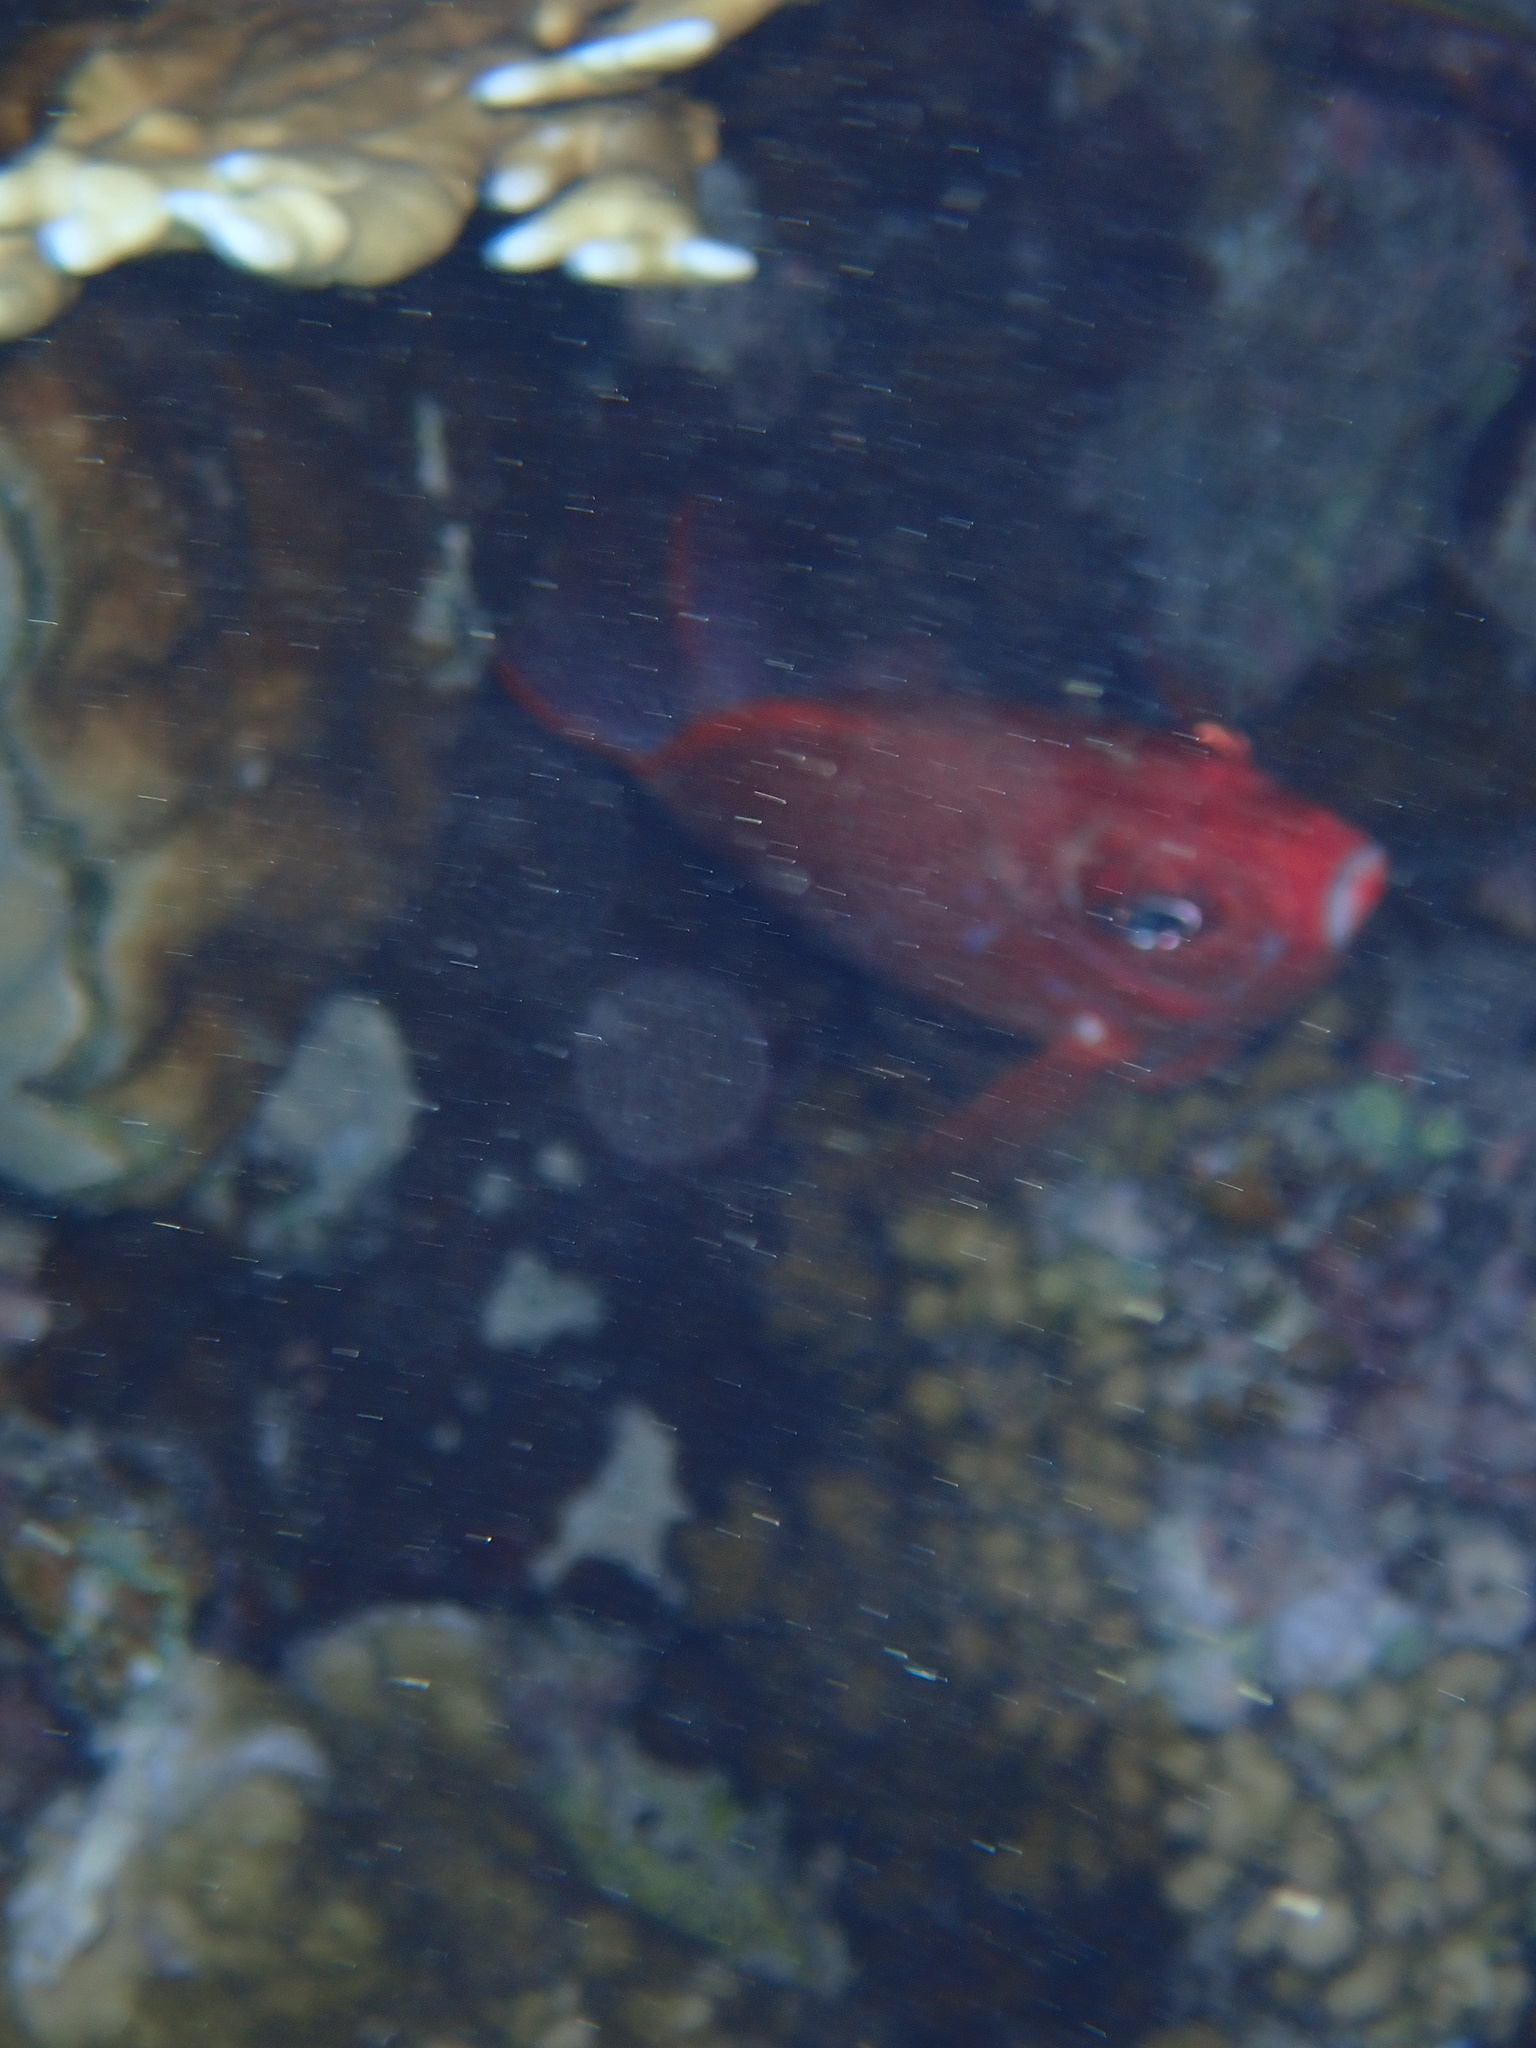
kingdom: Animalia
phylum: Chordata
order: Beryciformes
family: Holocentridae
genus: Sargocentron
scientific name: Sargocentron caudimaculatum
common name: Fanfin soldier
